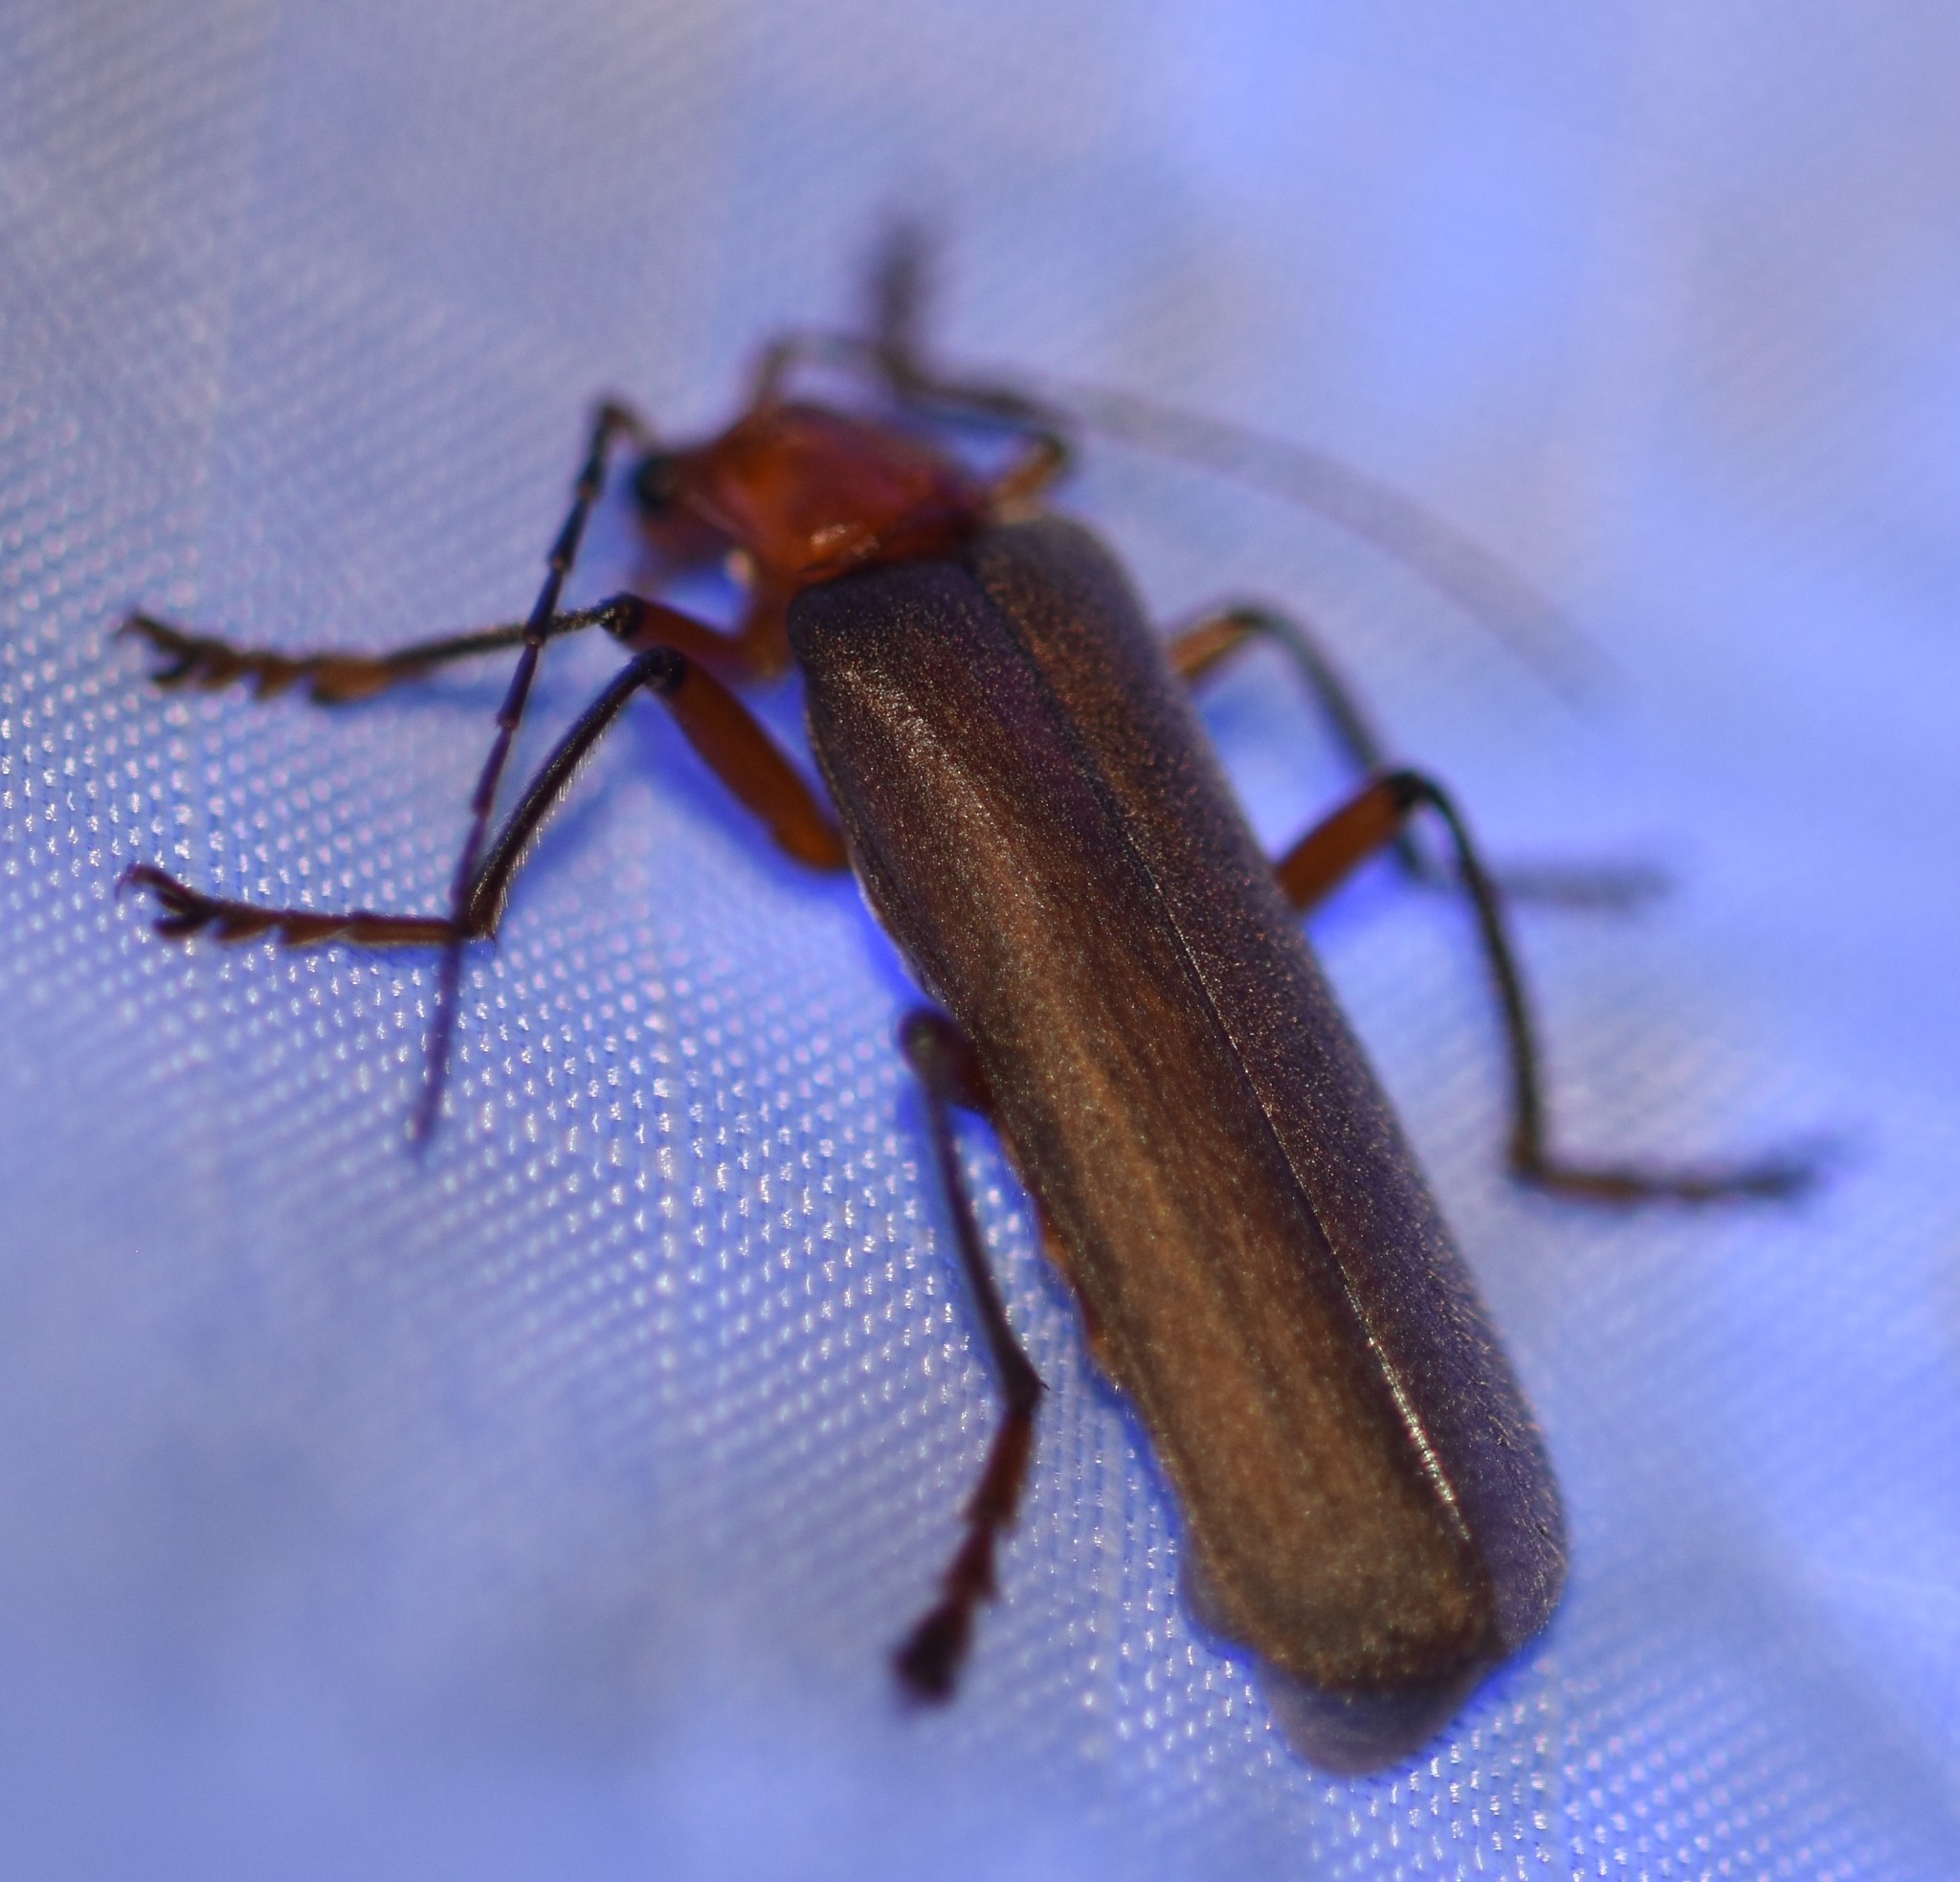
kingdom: Animalia
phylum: Arthropoda
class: Insecta
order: Coleoptera
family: Cantharidae
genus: Pacificanthia
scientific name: Pacificanthia consors
